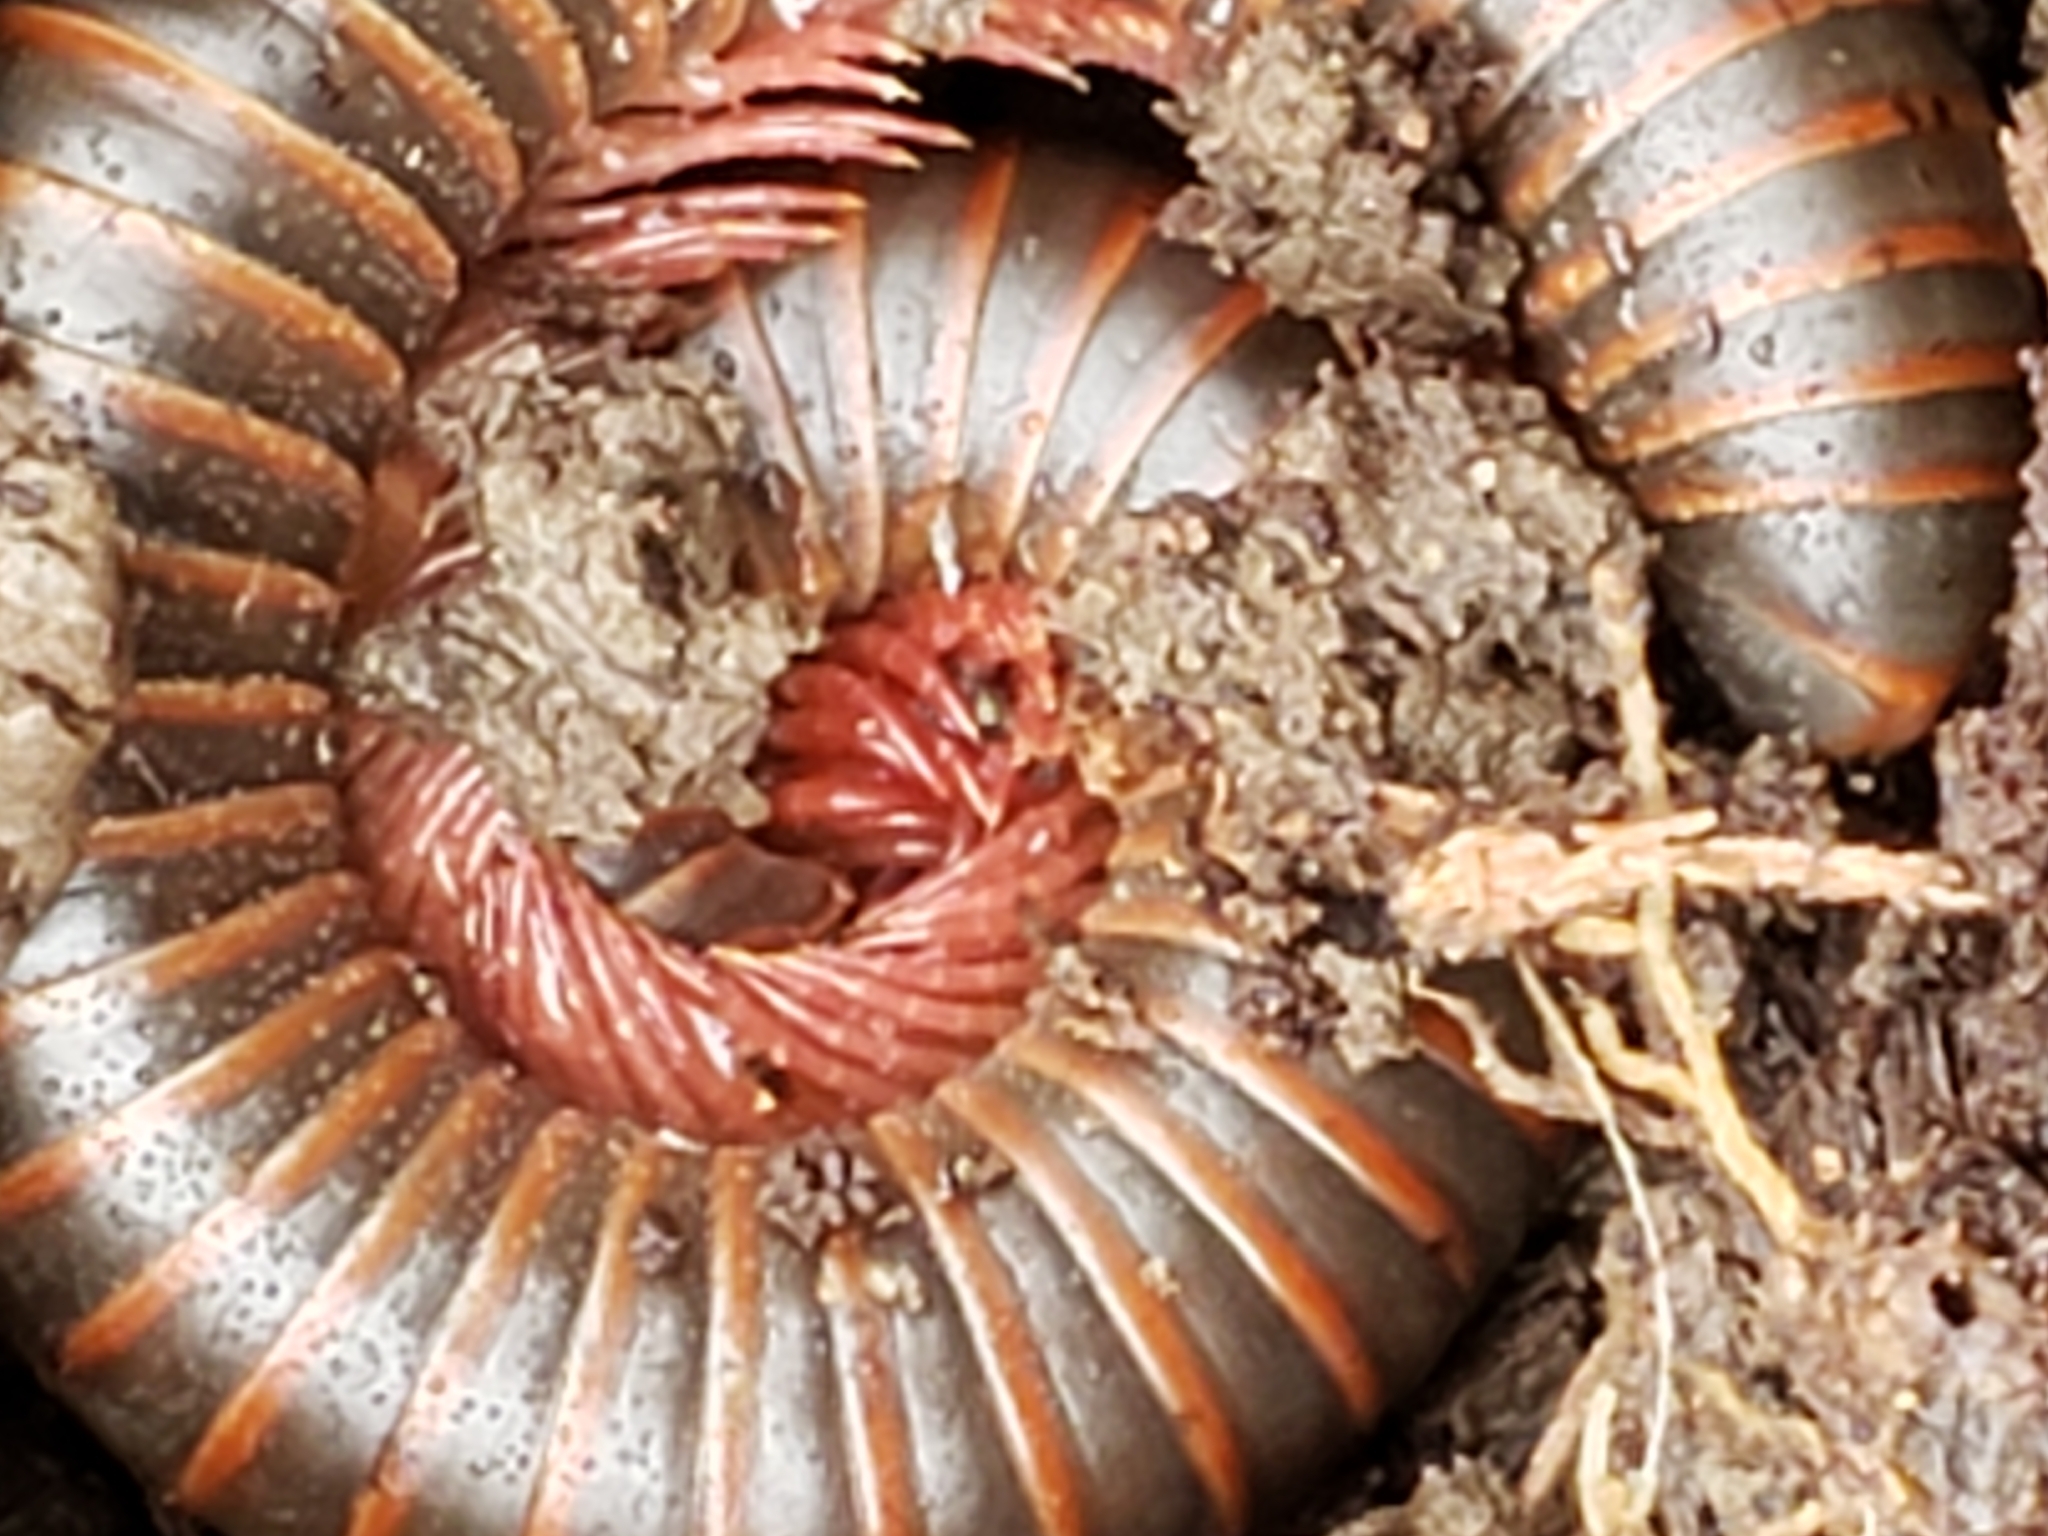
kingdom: Animalia
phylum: Arthropoda
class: Diplopoda
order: Spirobolida
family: Spirobolidae
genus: Narceus
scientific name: Narceus
